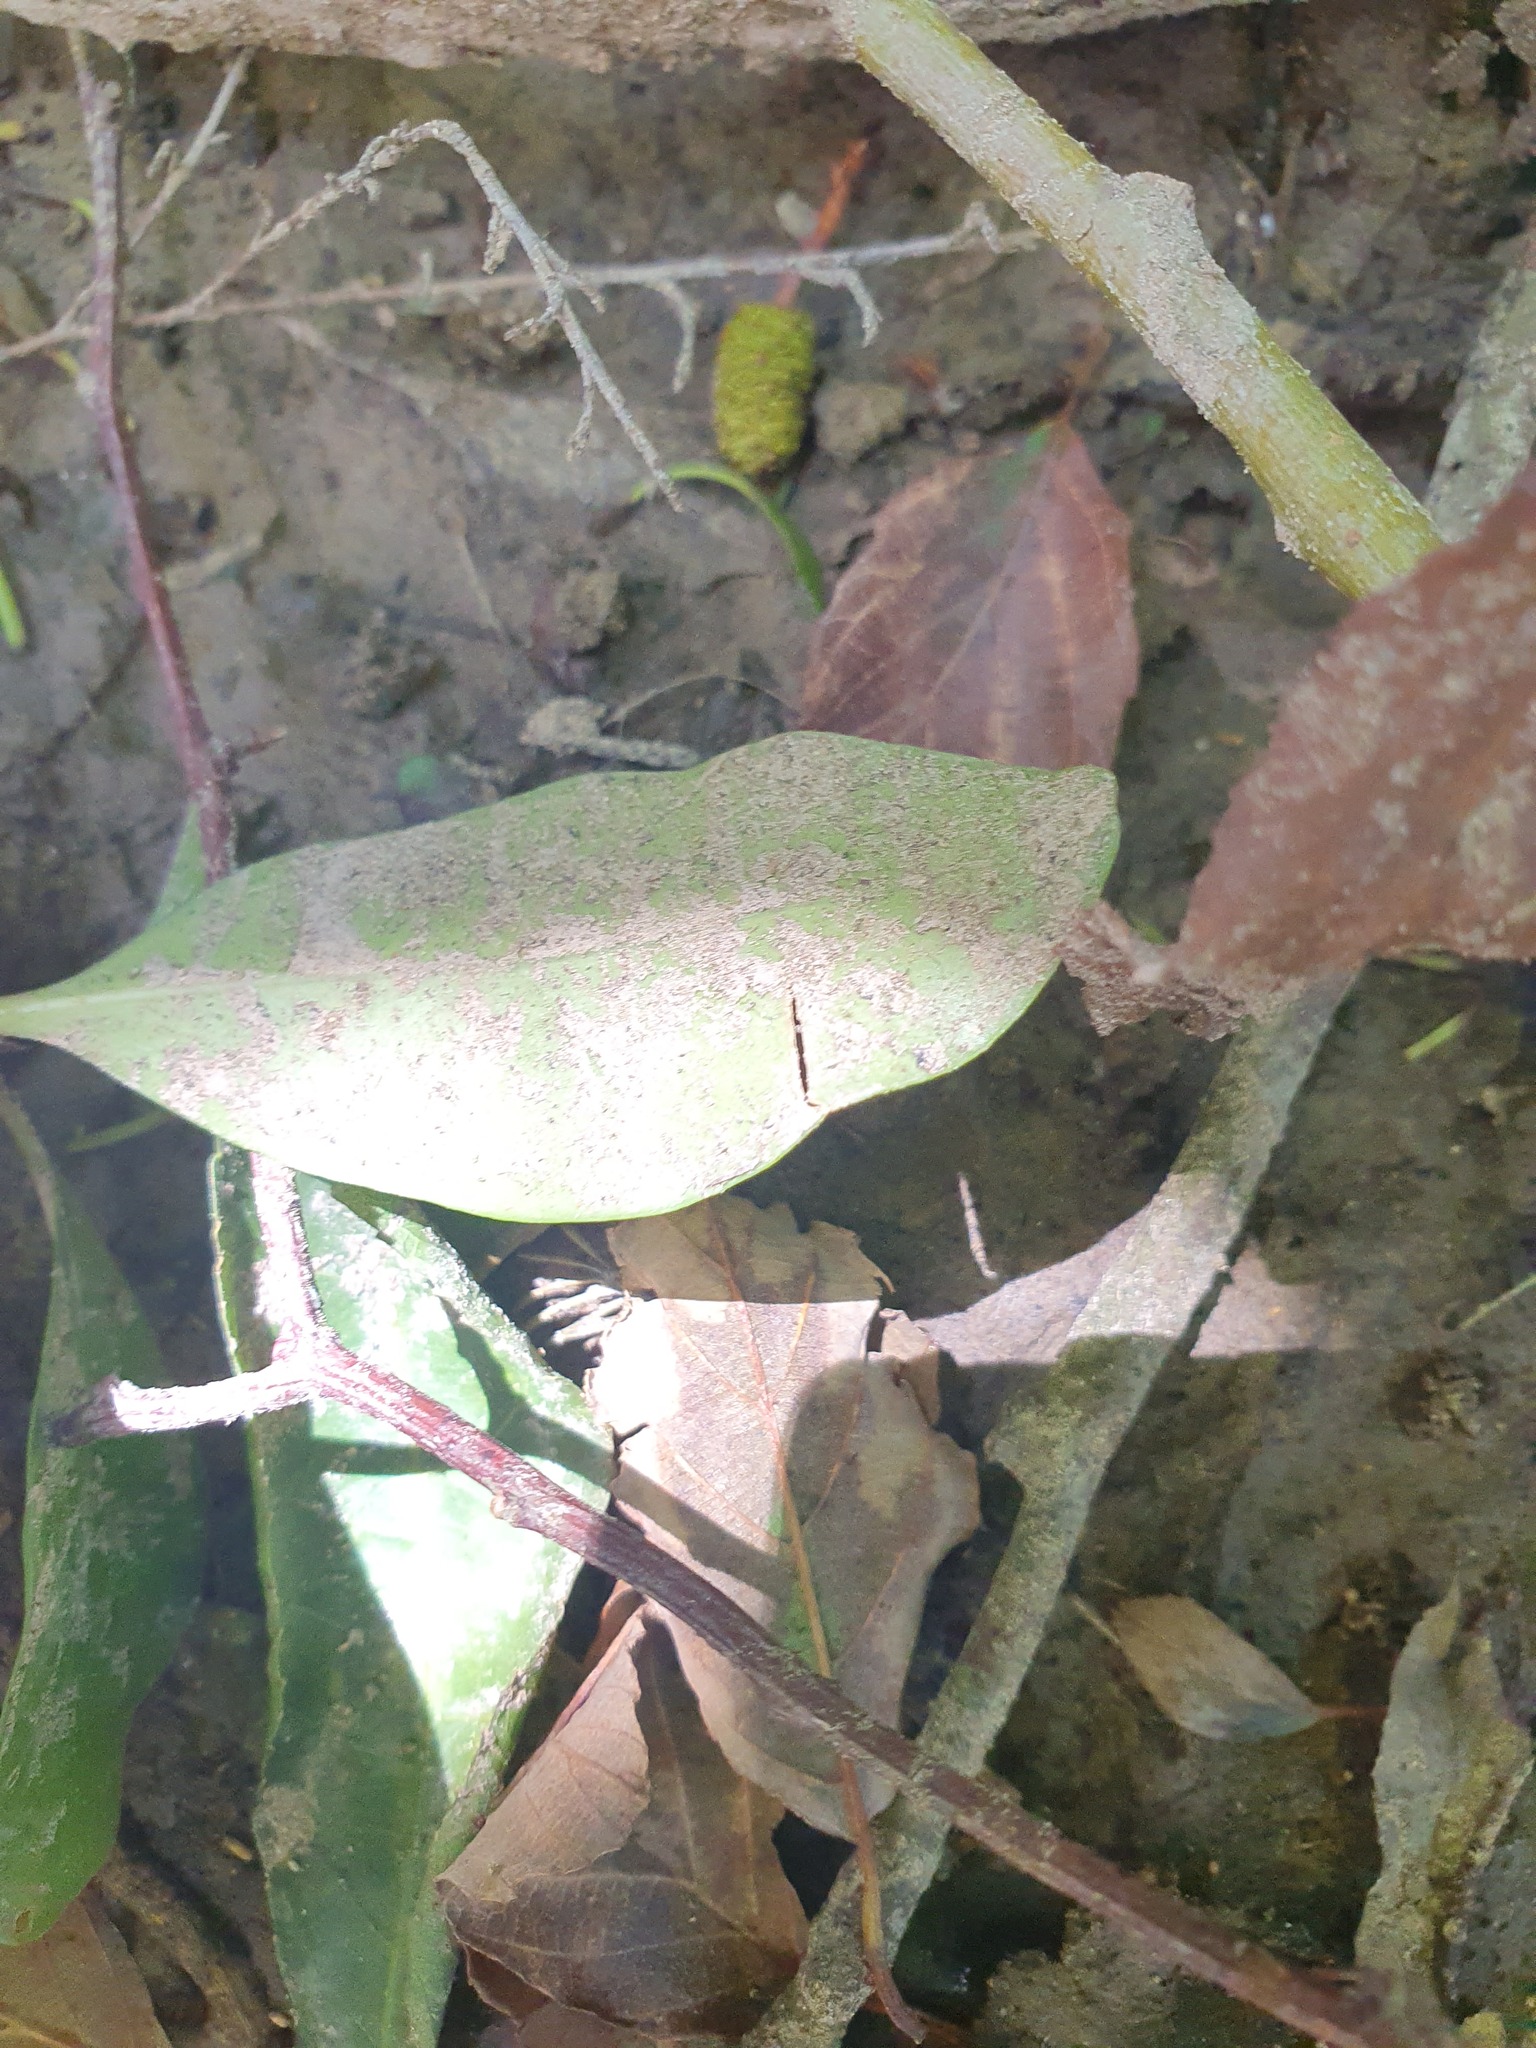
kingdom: Plantae
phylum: Tracheophyta
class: Magnoliopsida
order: Cucurbitales
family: Corynocarpaceae
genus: Corynocarpus
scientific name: Corynocarpus laevigatus
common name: New zealand laurel
